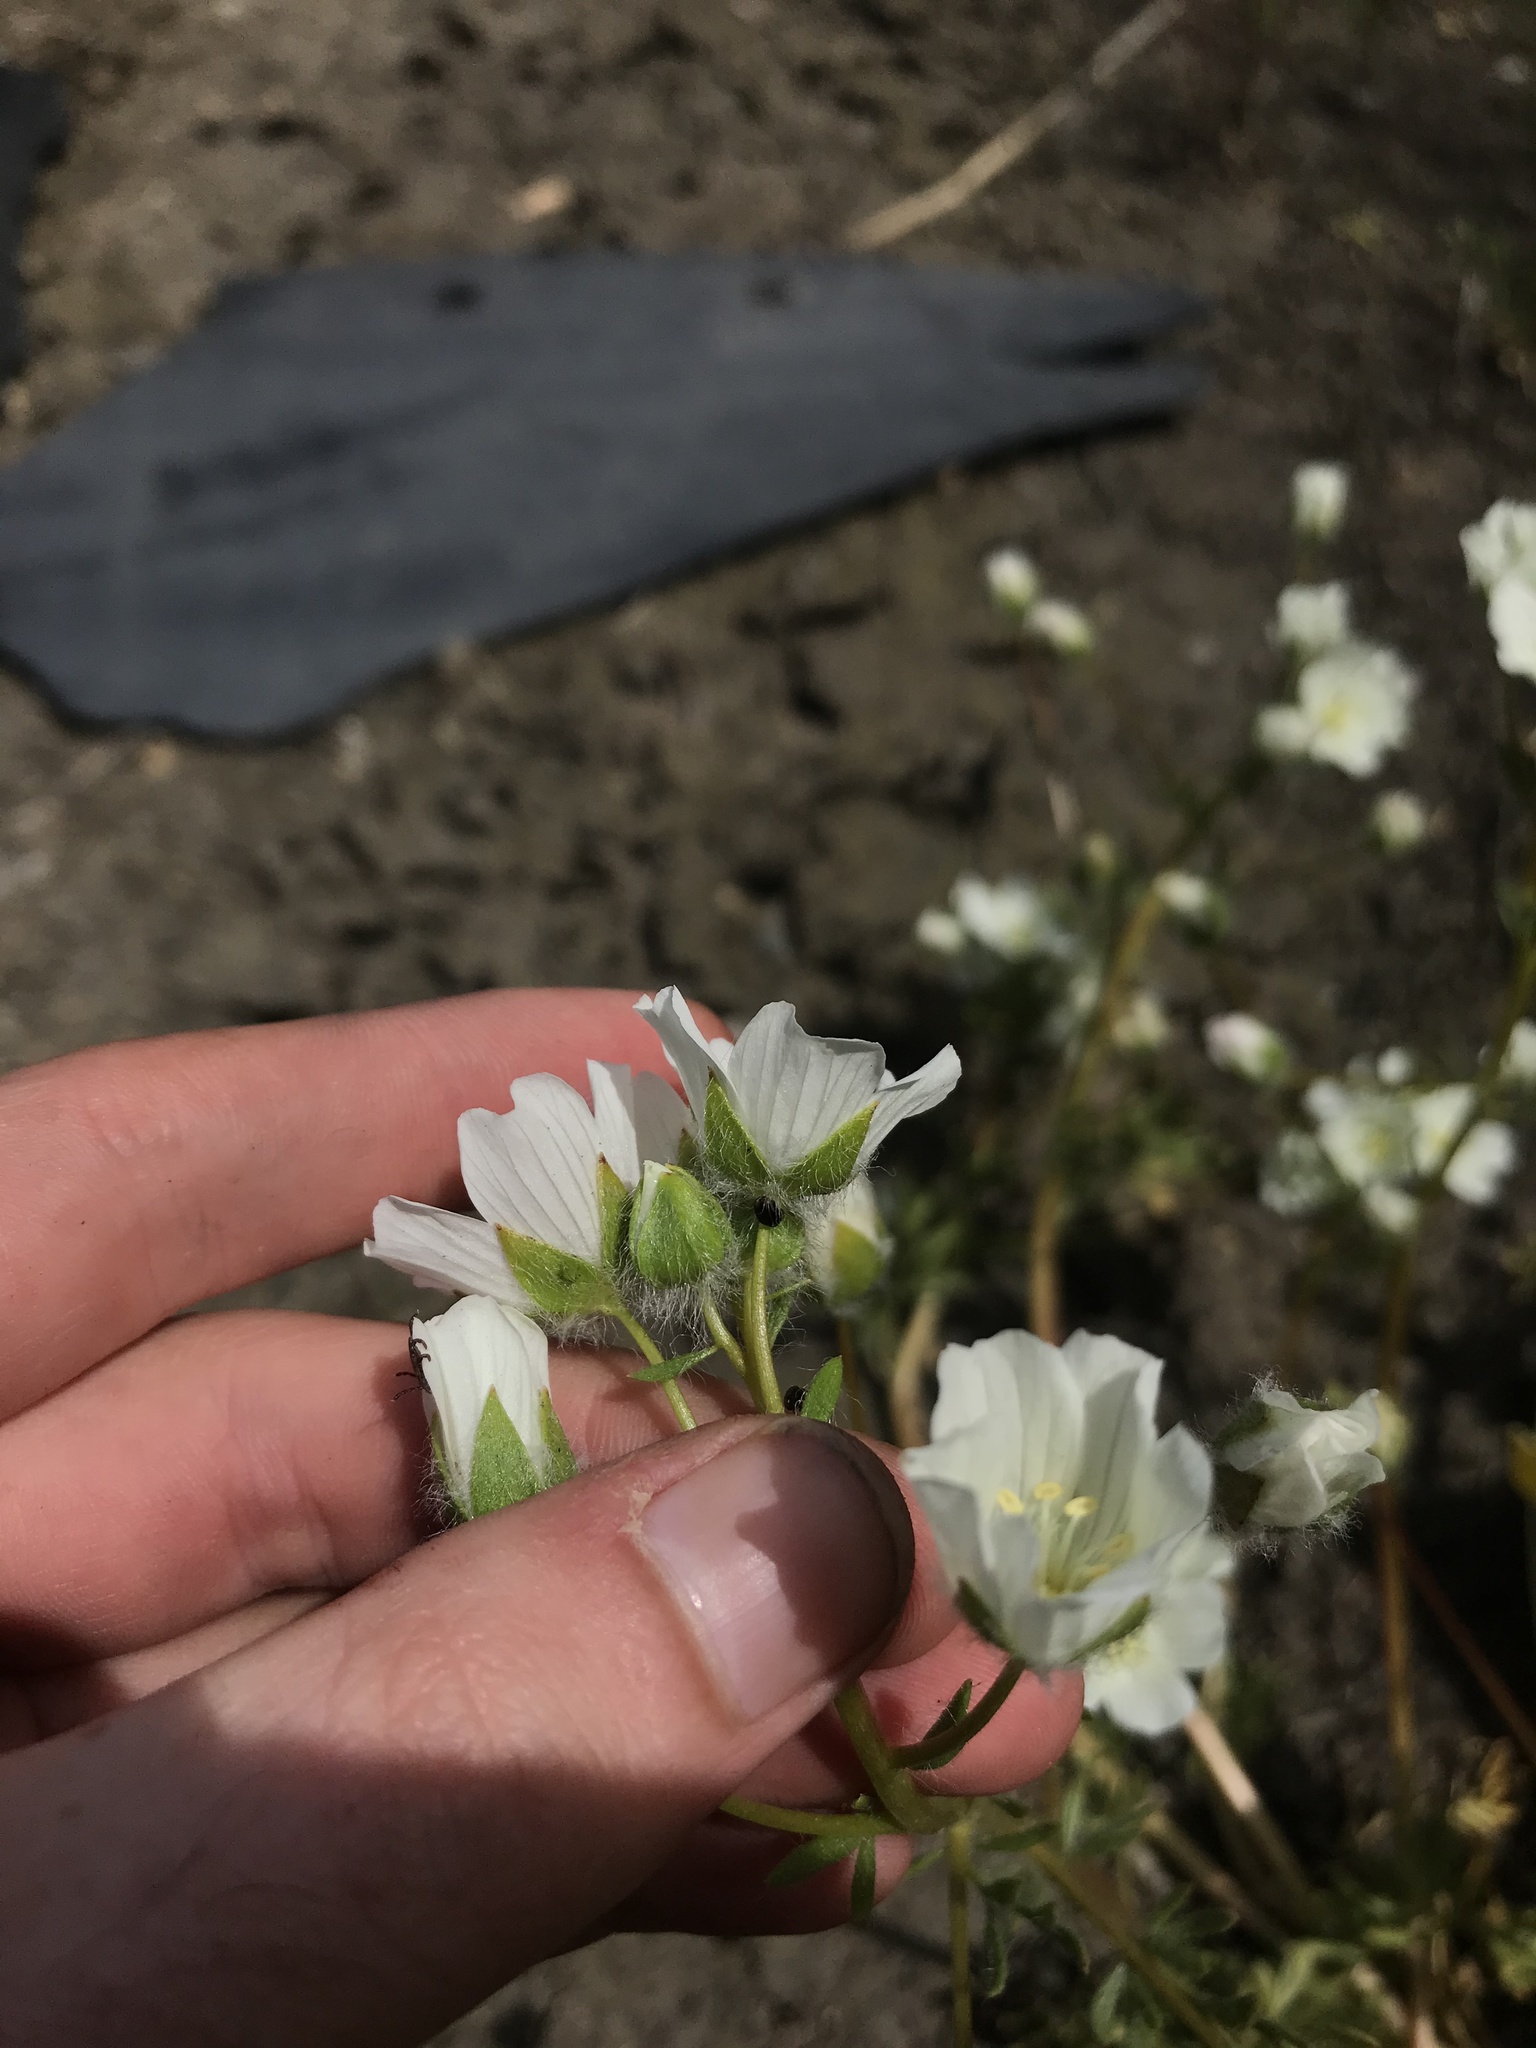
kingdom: Plantae
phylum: Tracheophyta
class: Magnoliopsida
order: Brassicales
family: Limnanthaceae
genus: Limnanthes
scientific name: Limnanthes alba
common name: Meadowfoam
